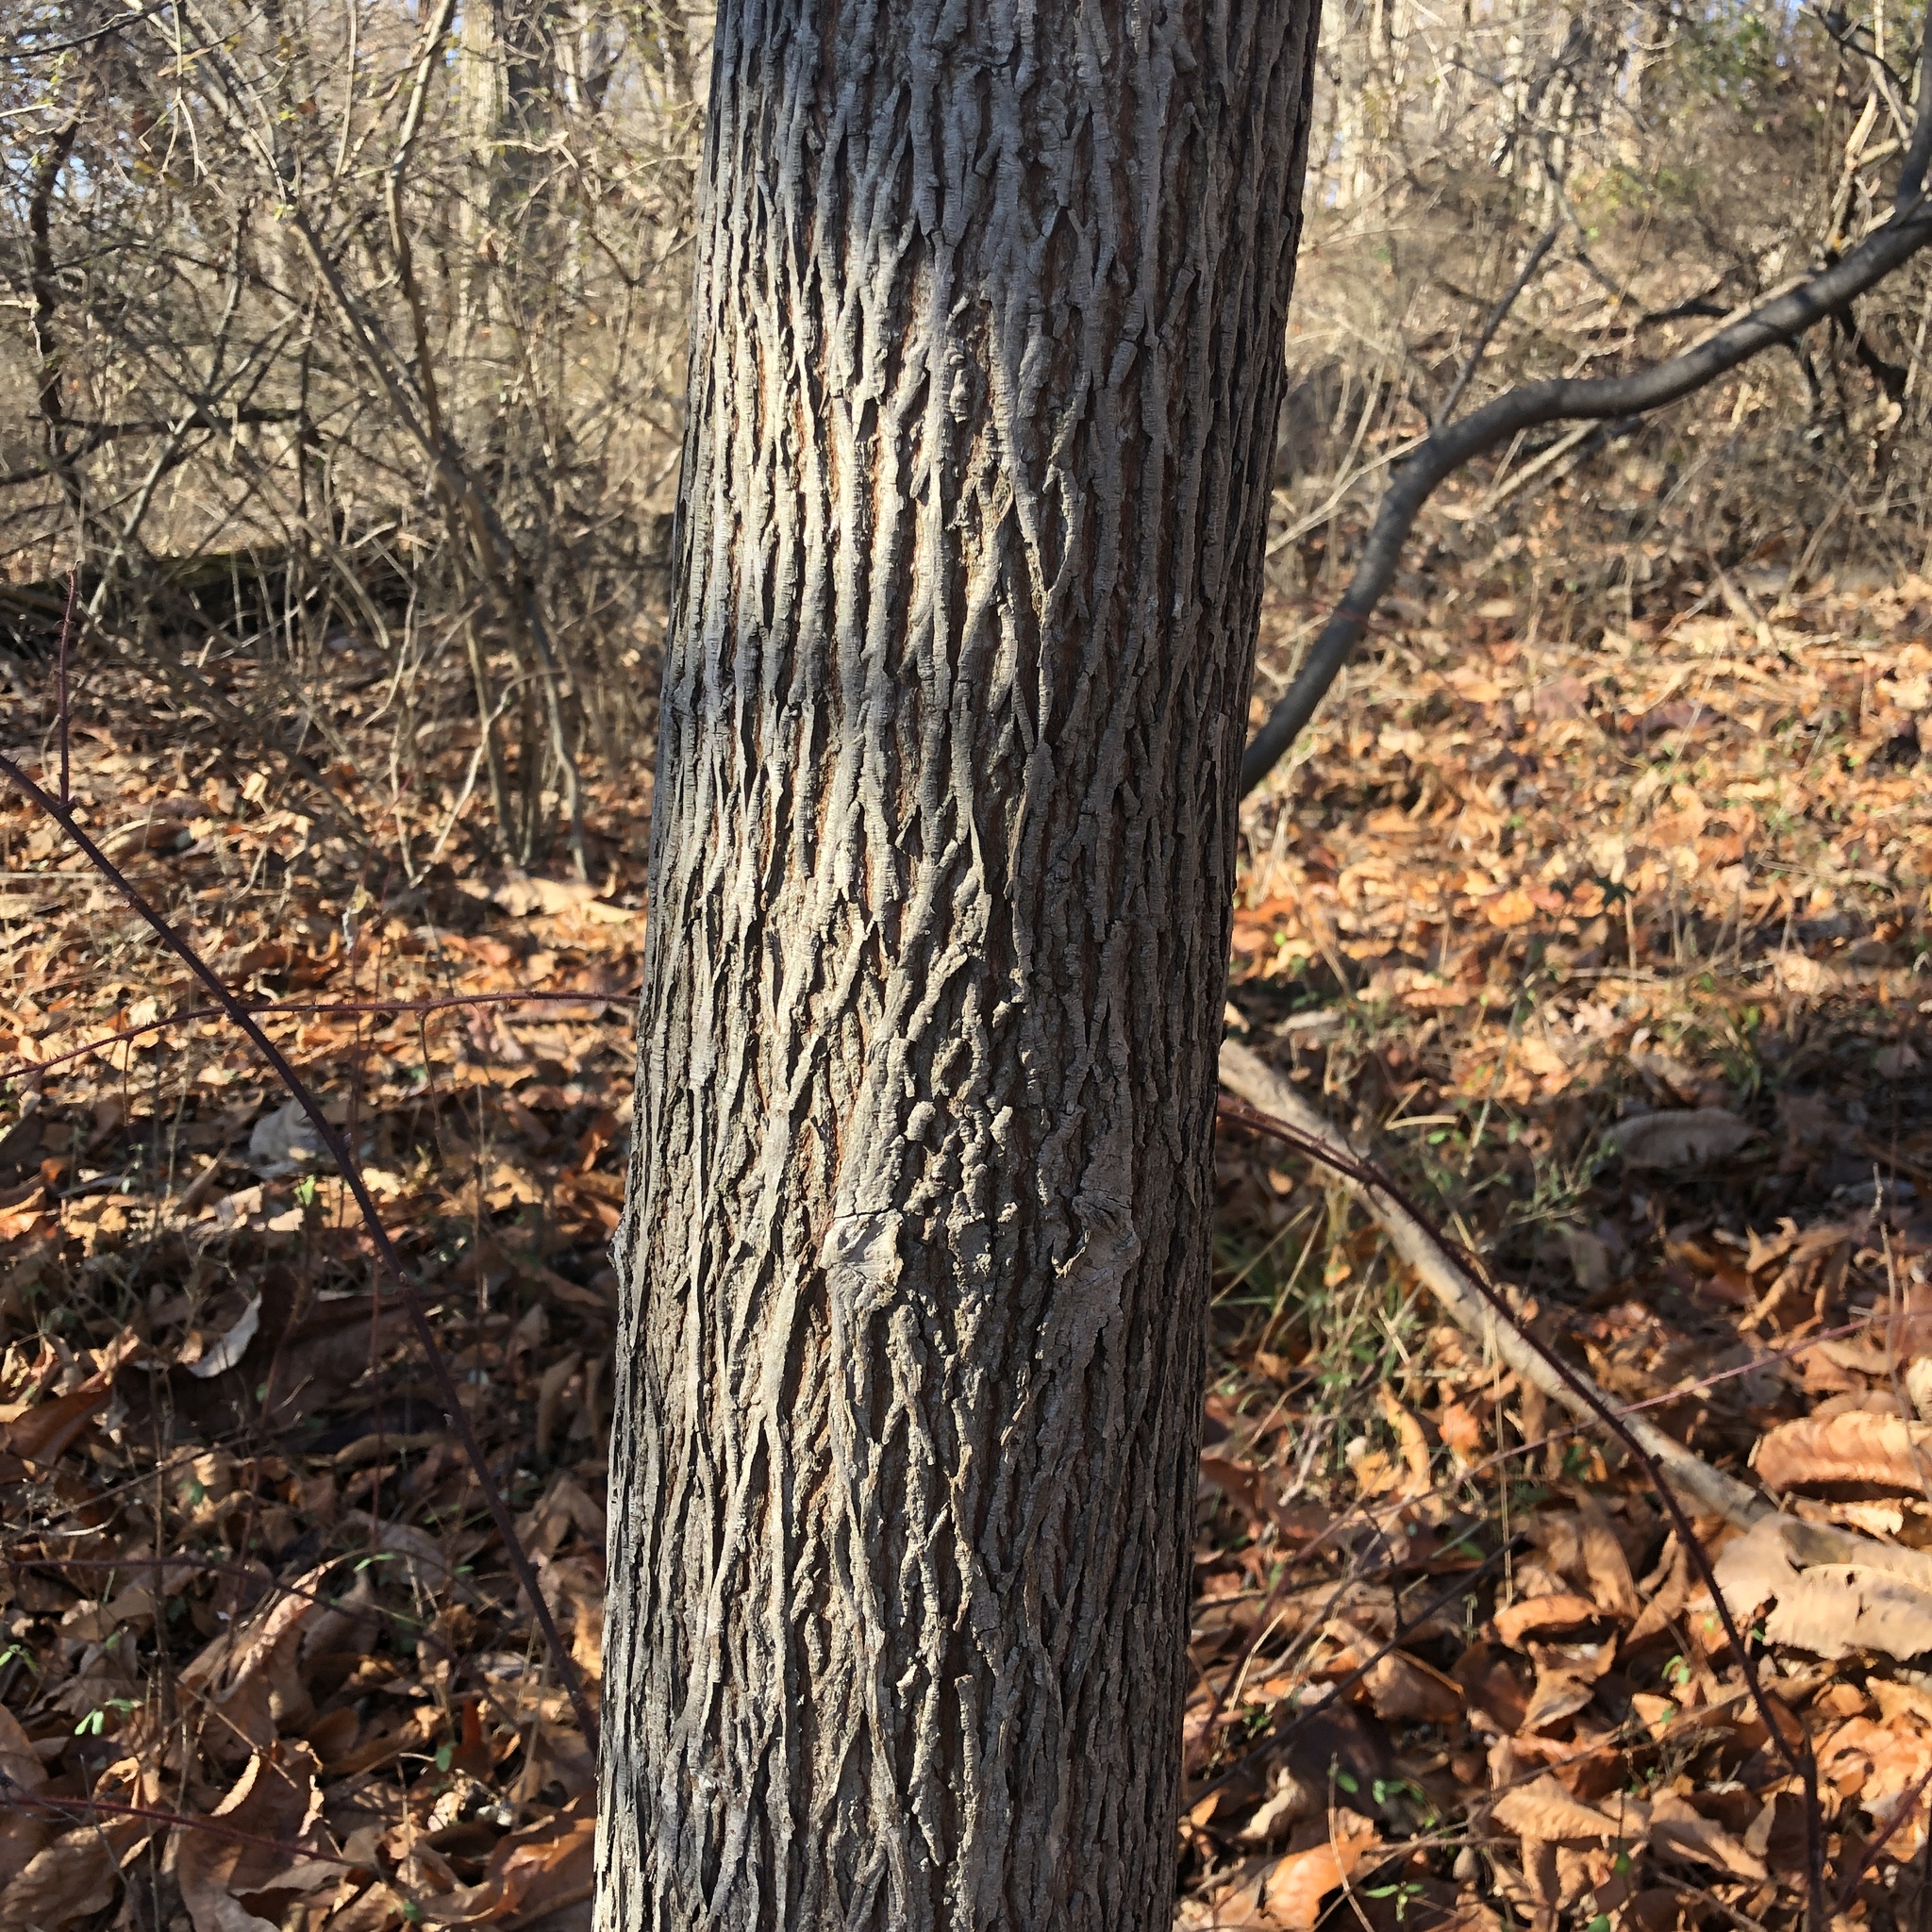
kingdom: Plantae
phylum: Tracheophyta
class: Magnoliopsida
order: Fagales
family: Juglandaceae
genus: Carya
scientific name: Carya alba
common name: Mockernut hickory
